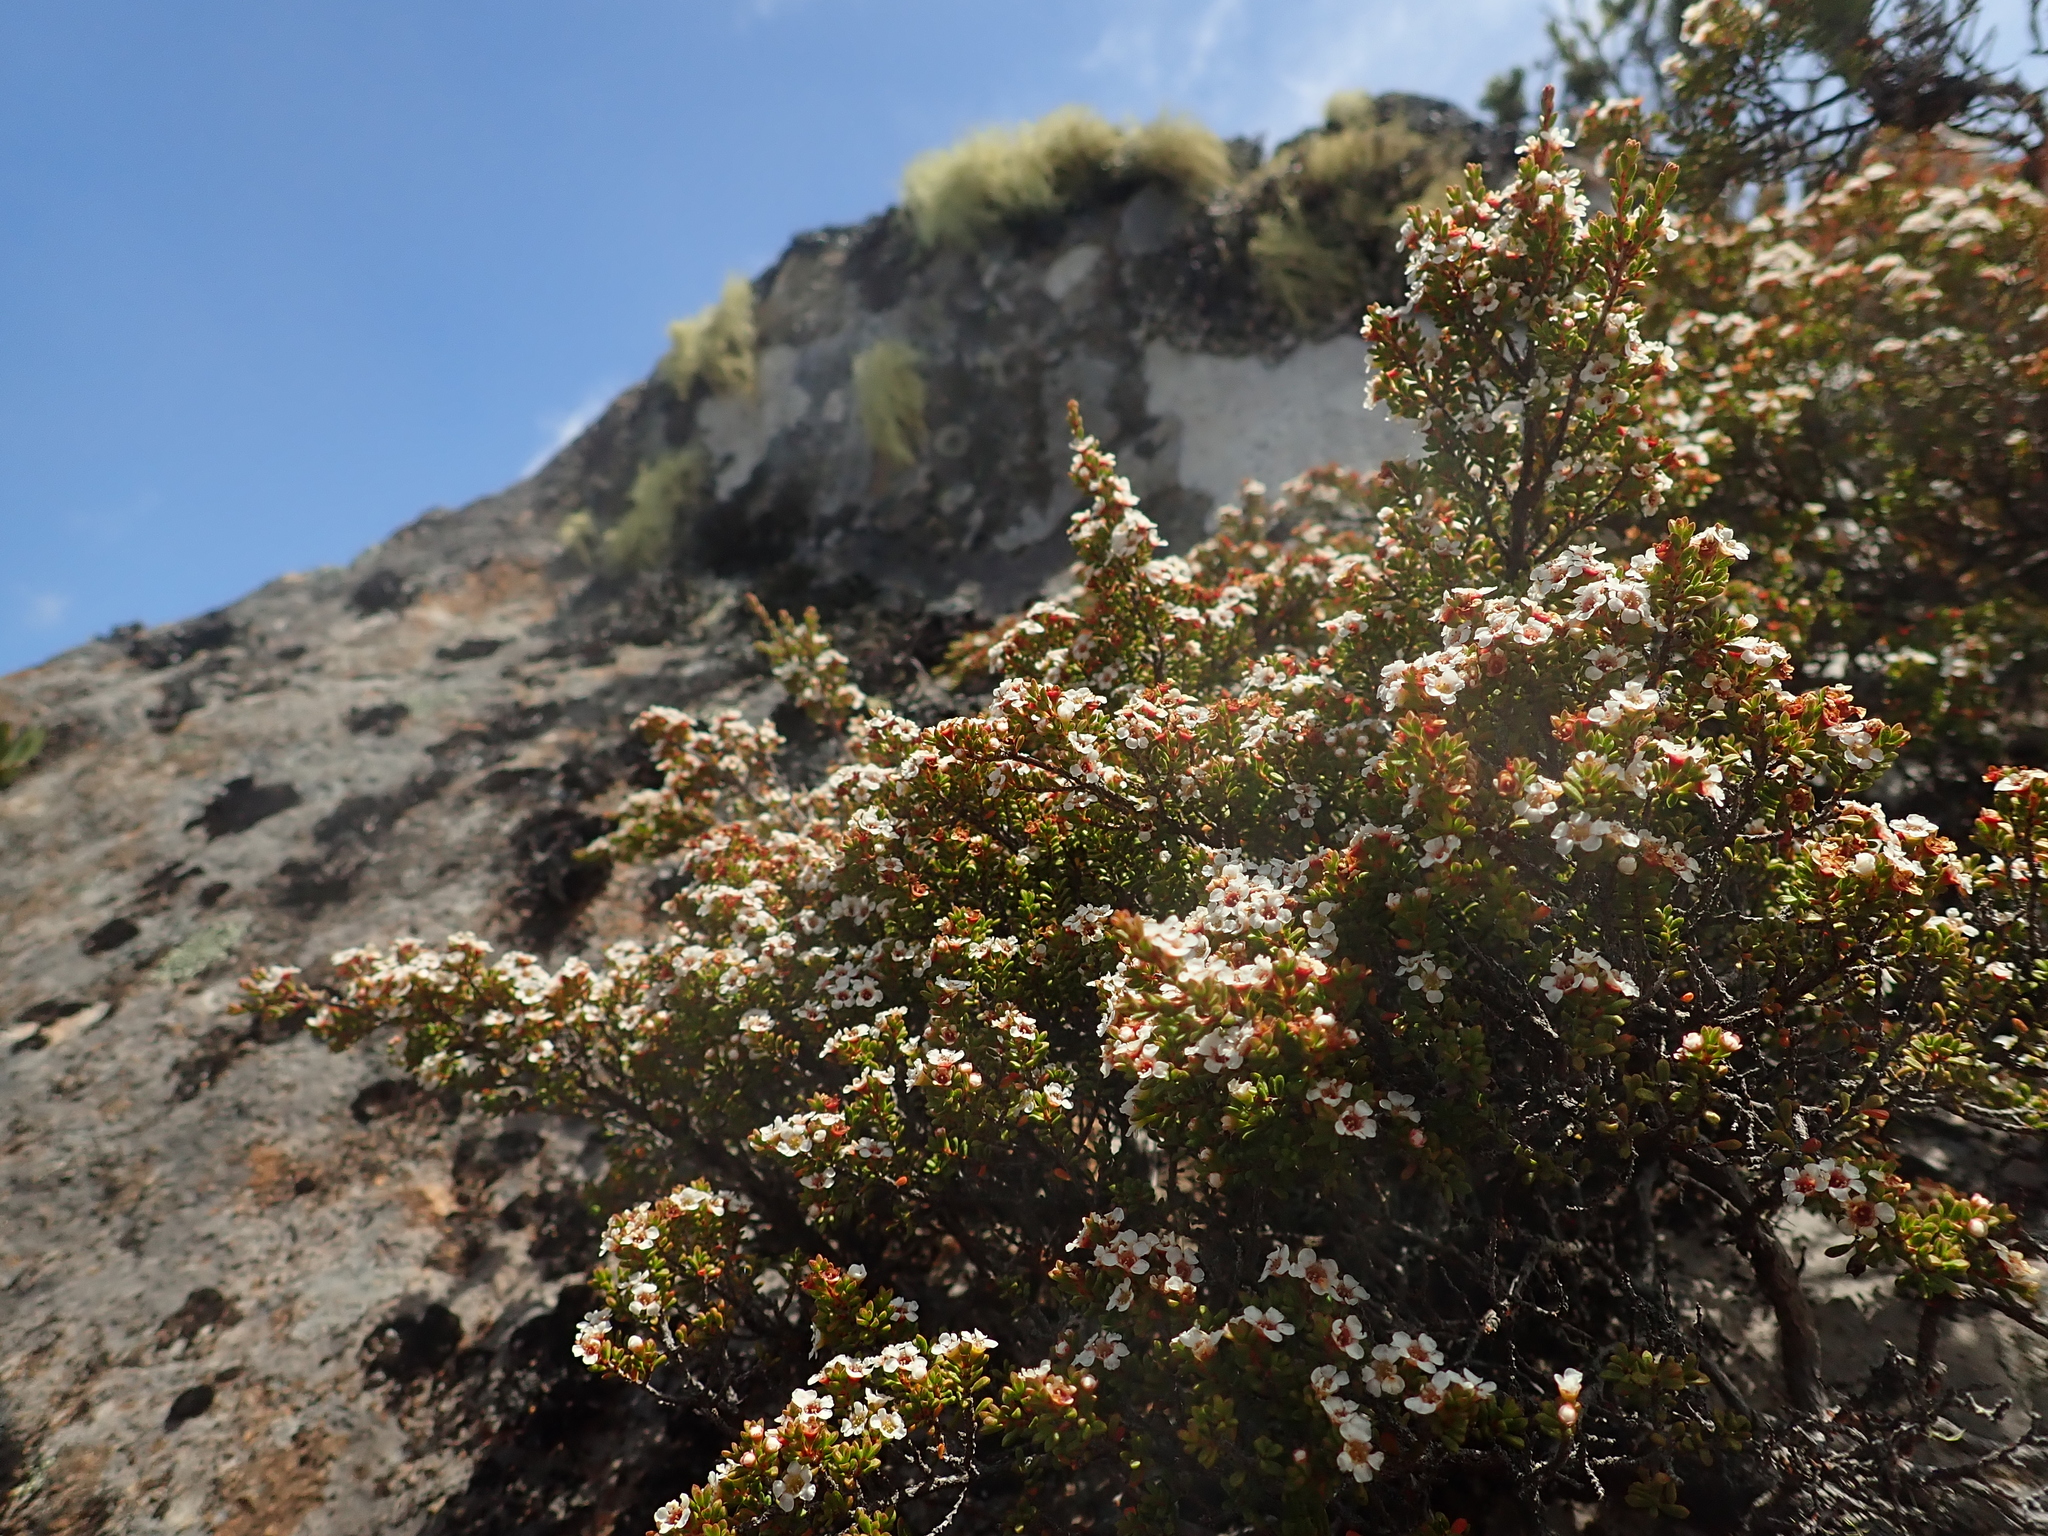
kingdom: Plantae
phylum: Tracheophyta
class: Magnoliopsida
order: Myrtales
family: Myrtaceae
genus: Baeckea
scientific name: Baeckea gunniana
